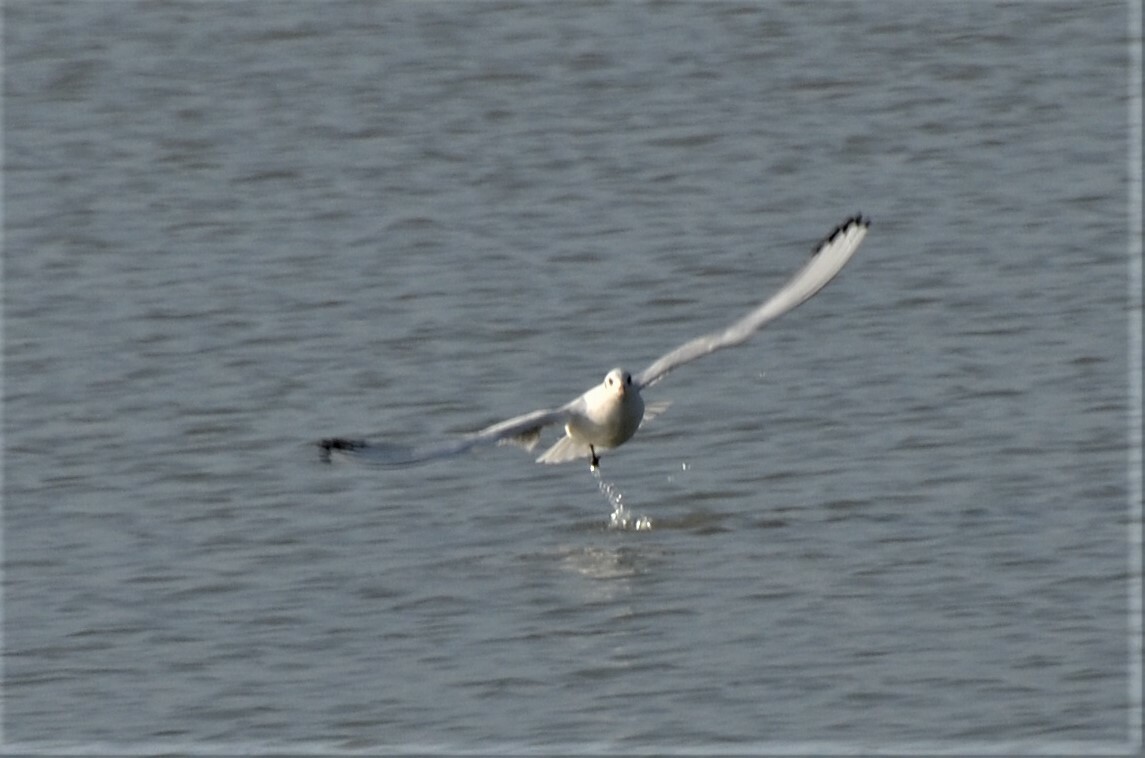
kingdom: Animalia
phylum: Chordata
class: Aves
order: Charadriiformes
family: Laridae
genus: Chroicocephalus
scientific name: Chroicocephalus ridibundus
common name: Black-headed gull
